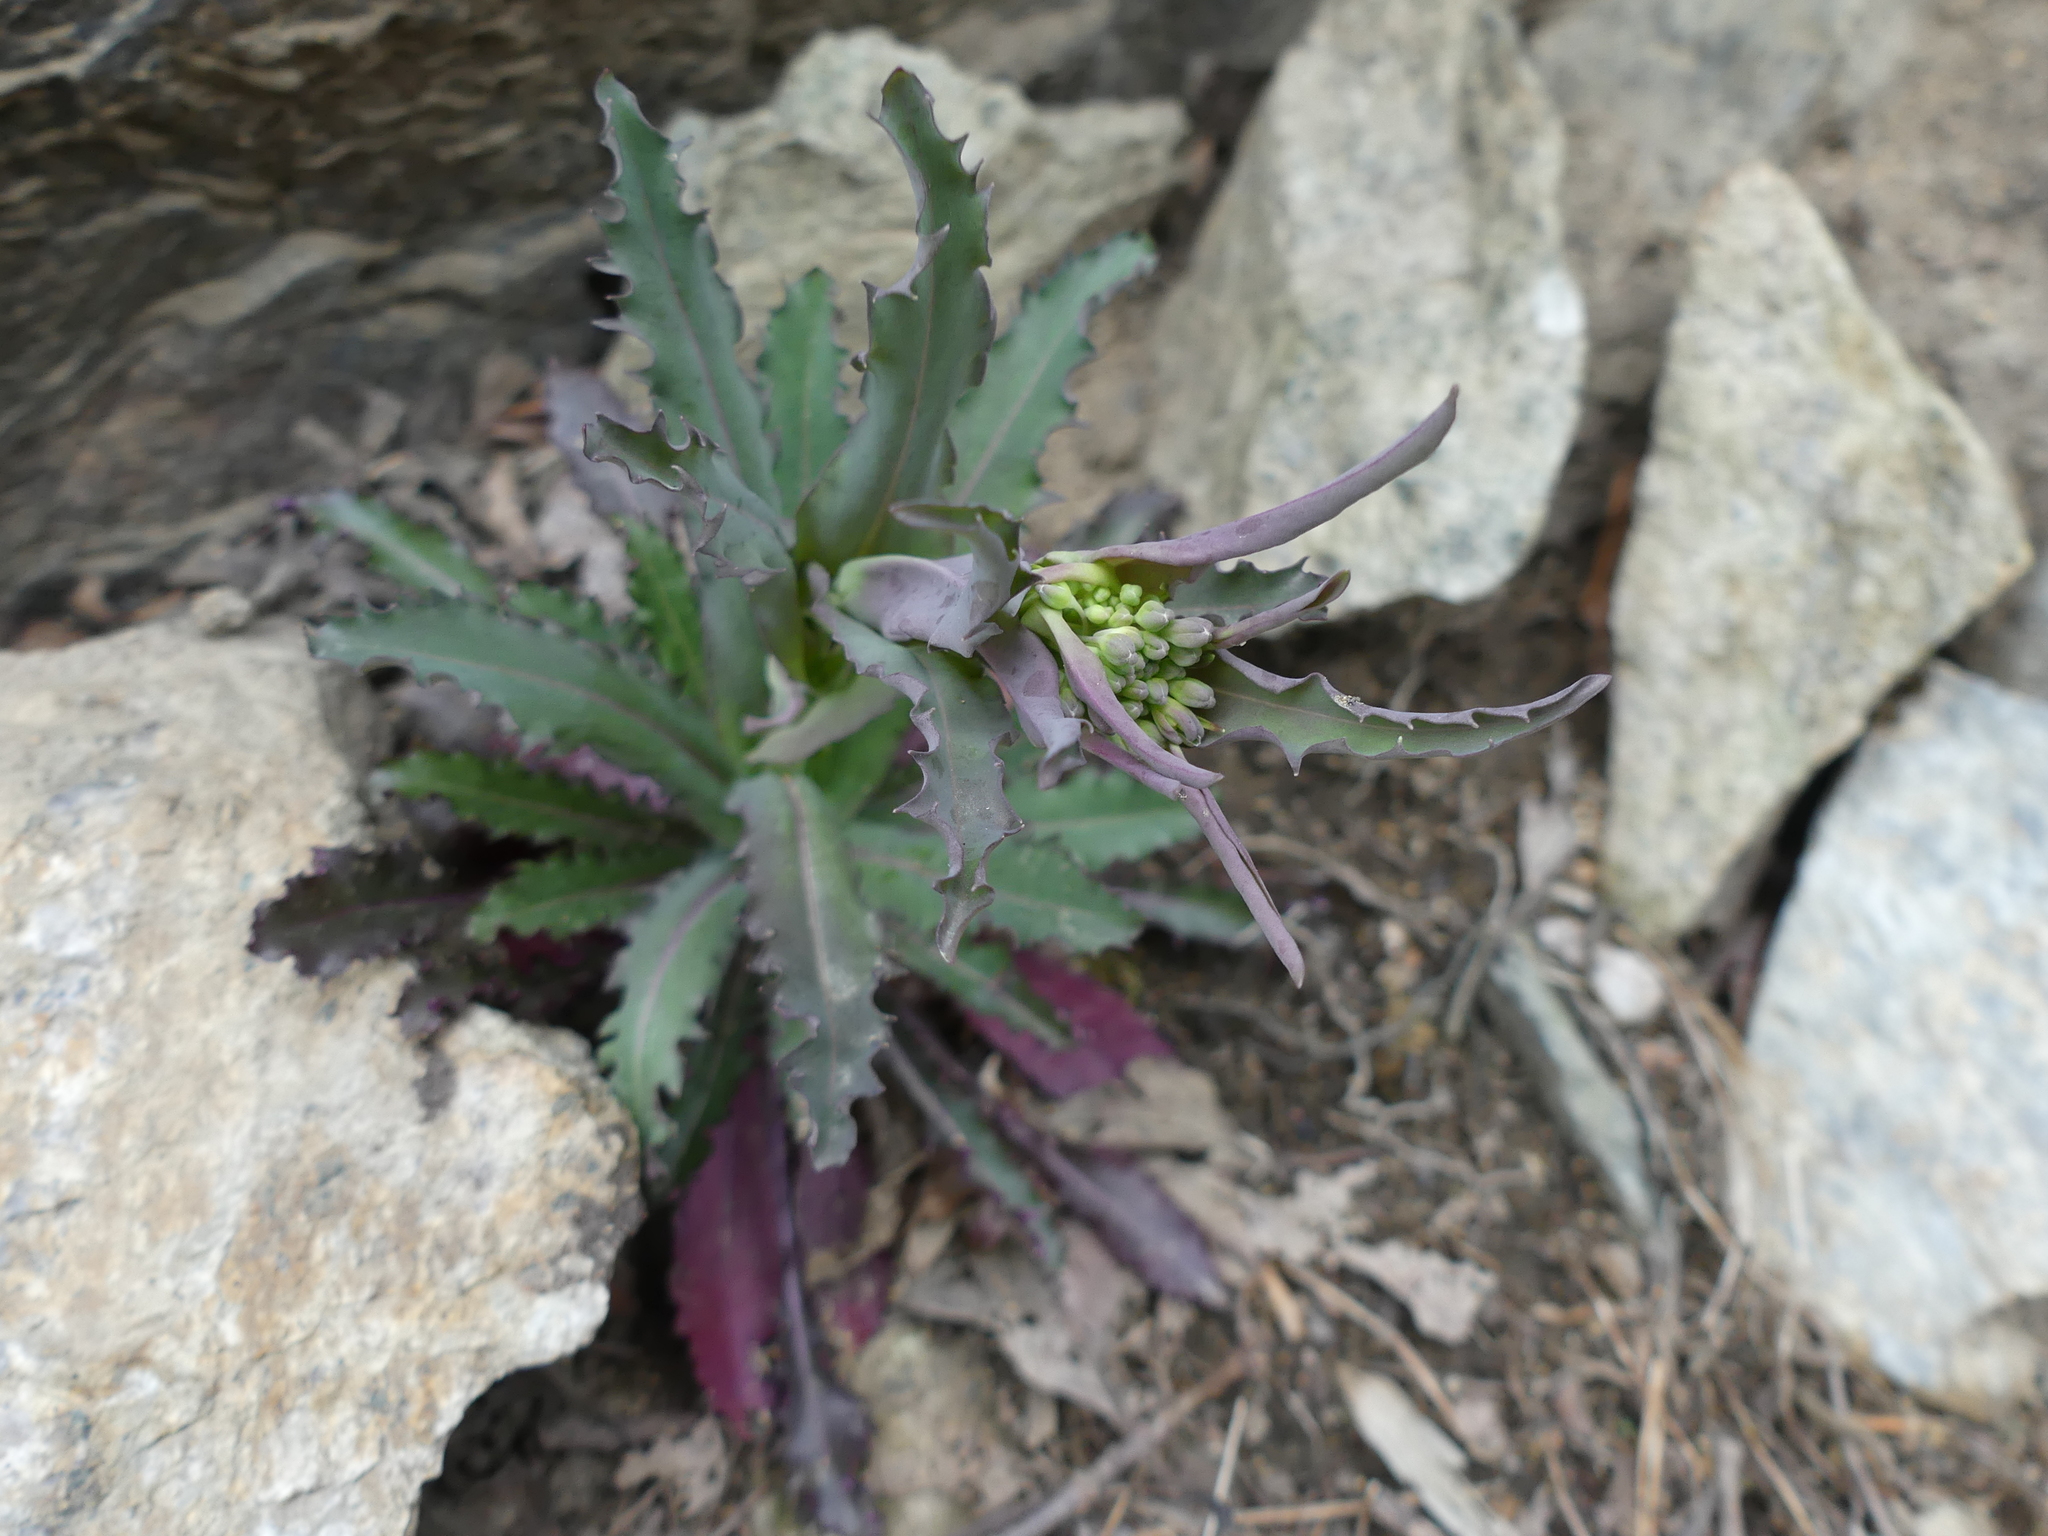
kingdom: Plantae
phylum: Tracheophyta
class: Magnoliopsida
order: Brassicales
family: Brassicaceae
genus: Borodinia
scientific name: Borodinia laevigata
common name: Smooth rockcress
